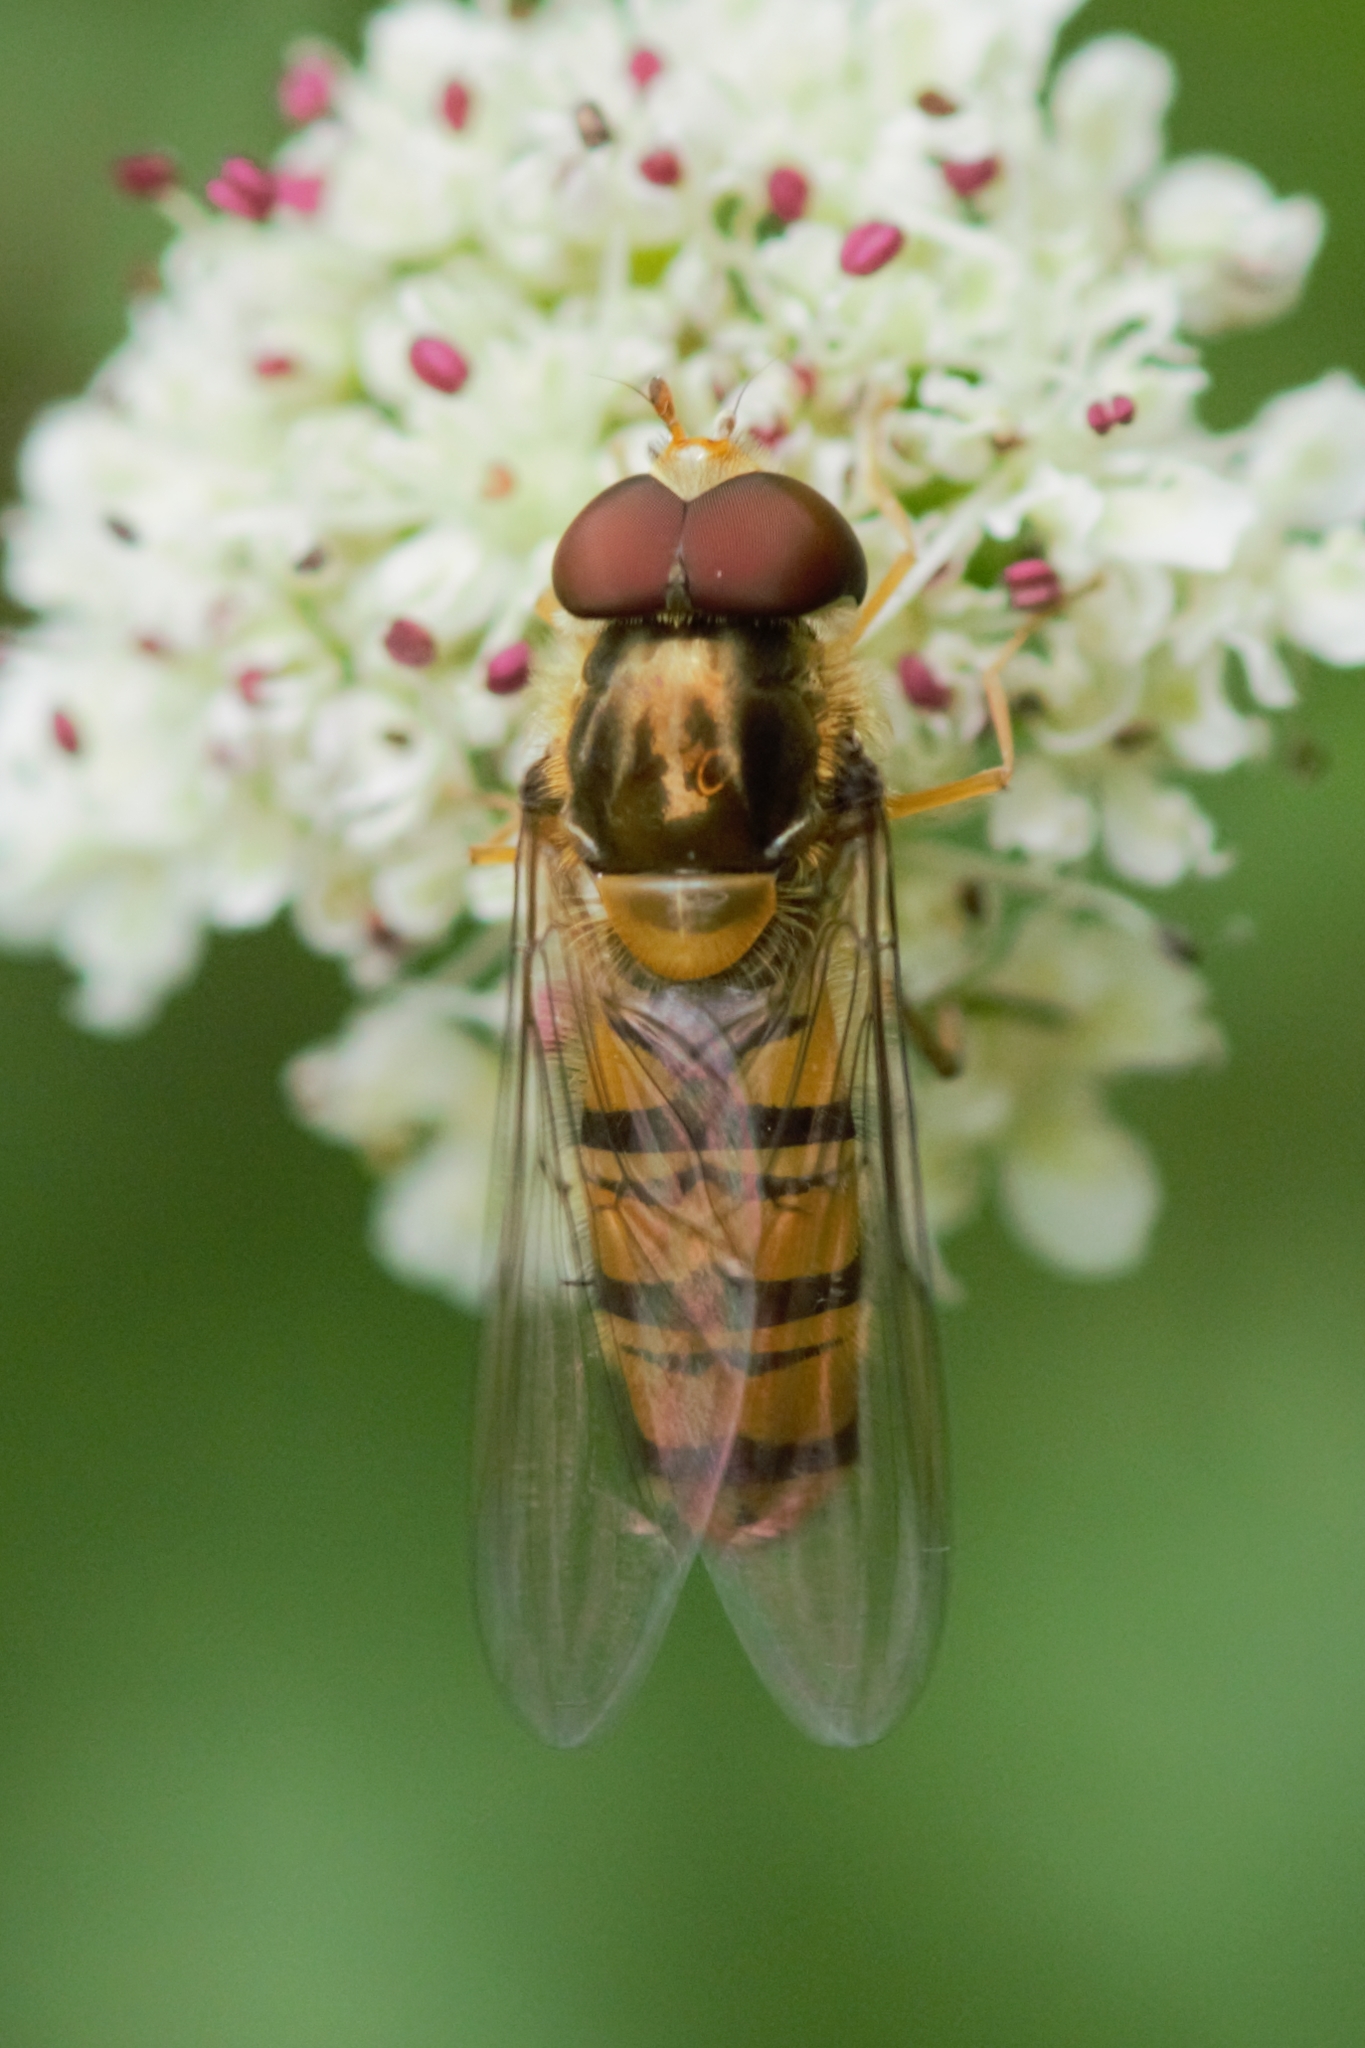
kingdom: Animalia
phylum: Arthropoda
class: Insecta
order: Diptera
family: Syrphidae
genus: Episyrphus
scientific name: Episyrphus balteatus
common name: Marmalade hoverfly
